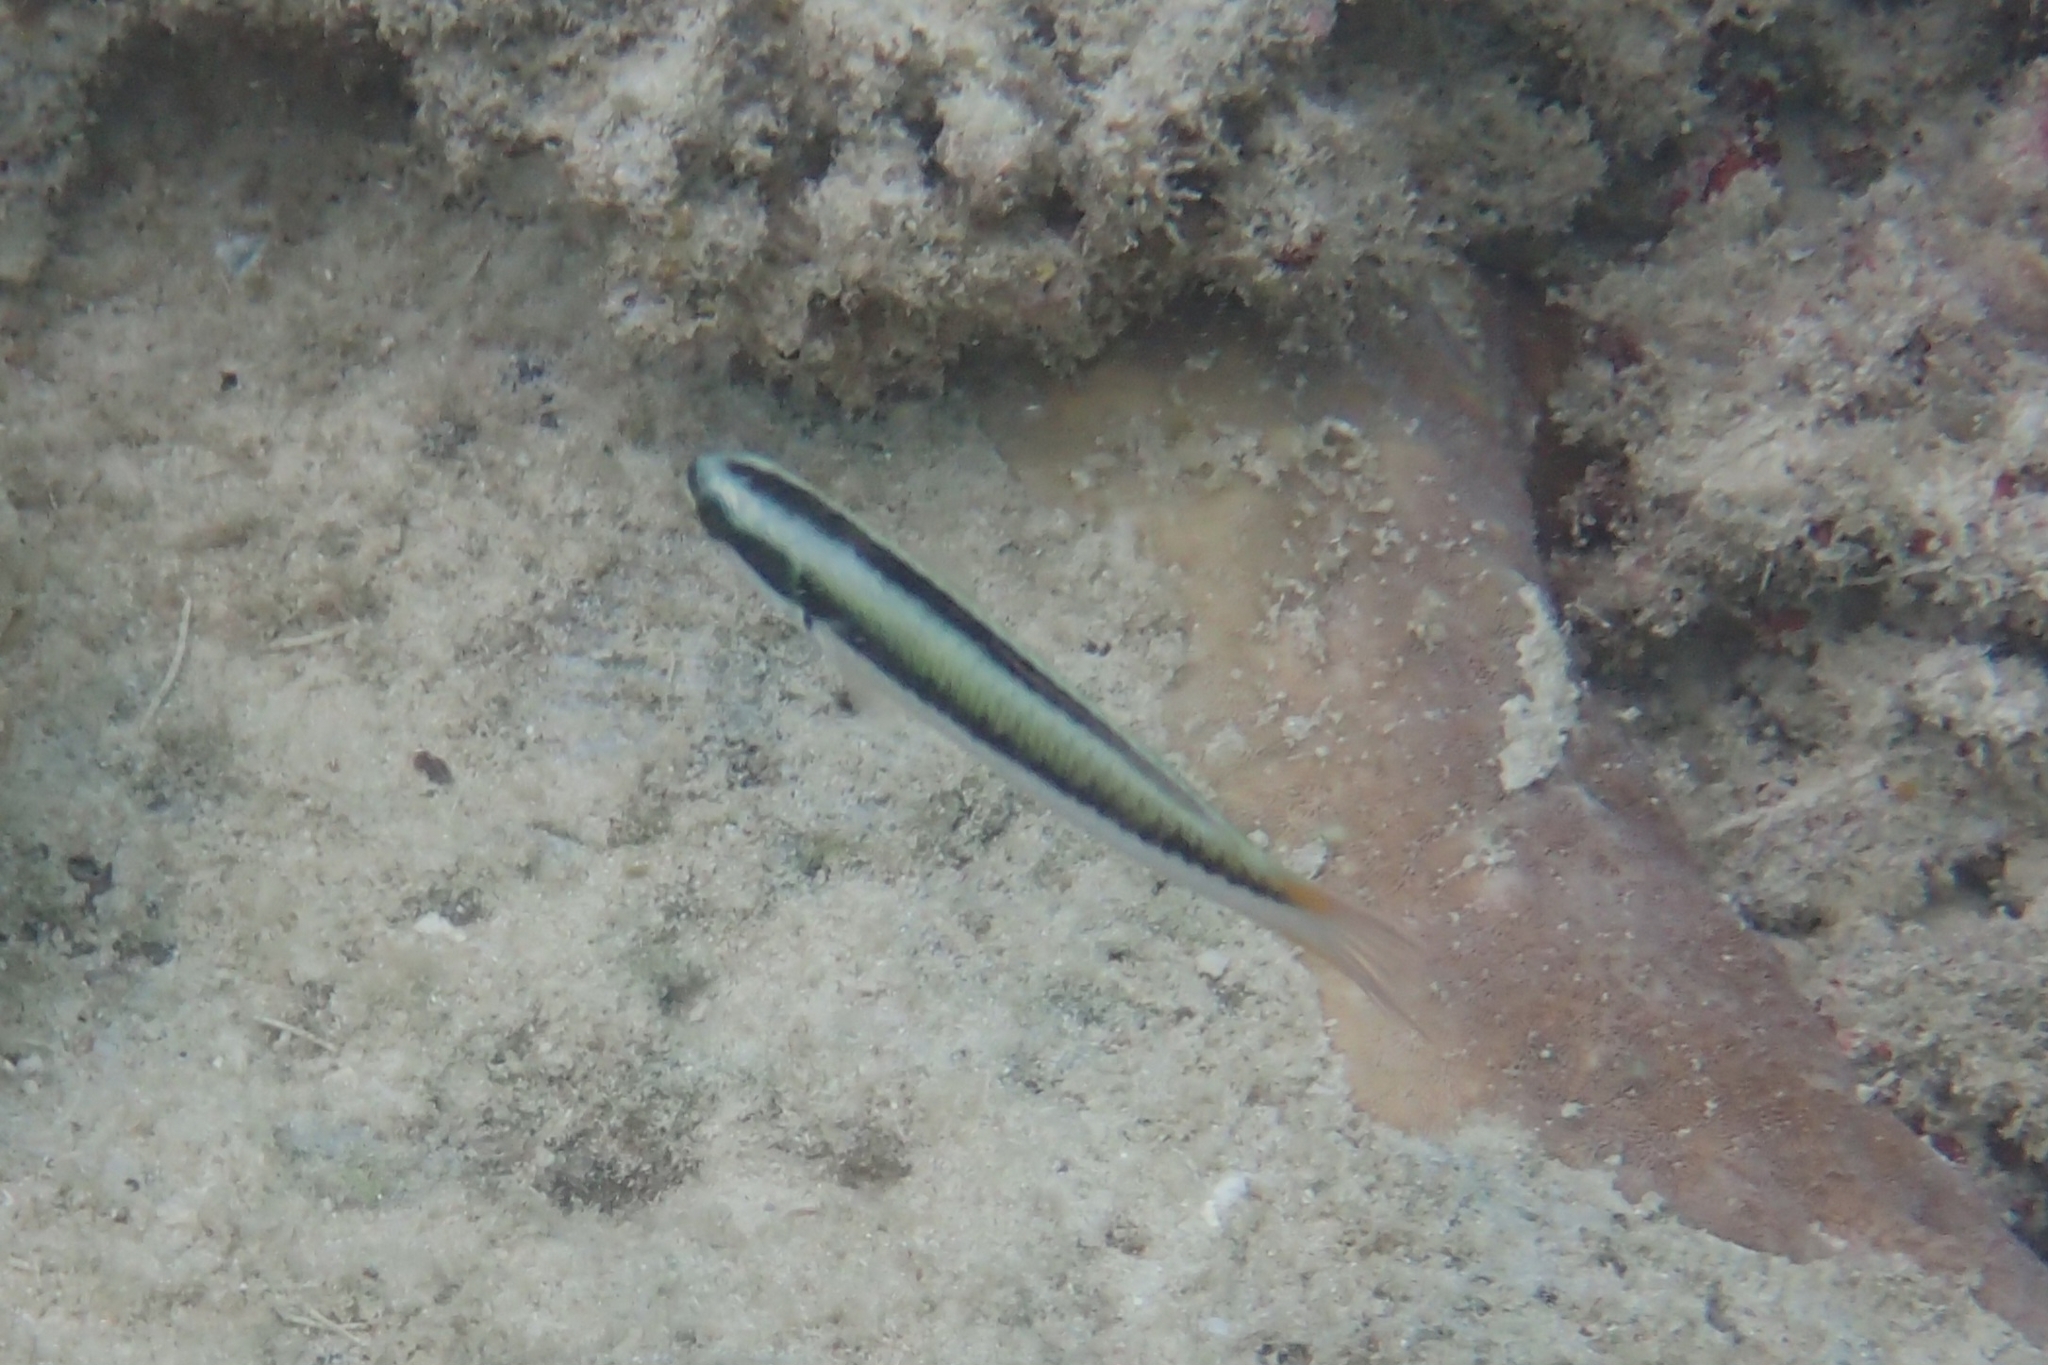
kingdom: Animalia
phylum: Chordata
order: Perciformes
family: Labridae
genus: Thalassoma
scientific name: Thalassoma amblycephalum
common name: Bluehead wrasse
